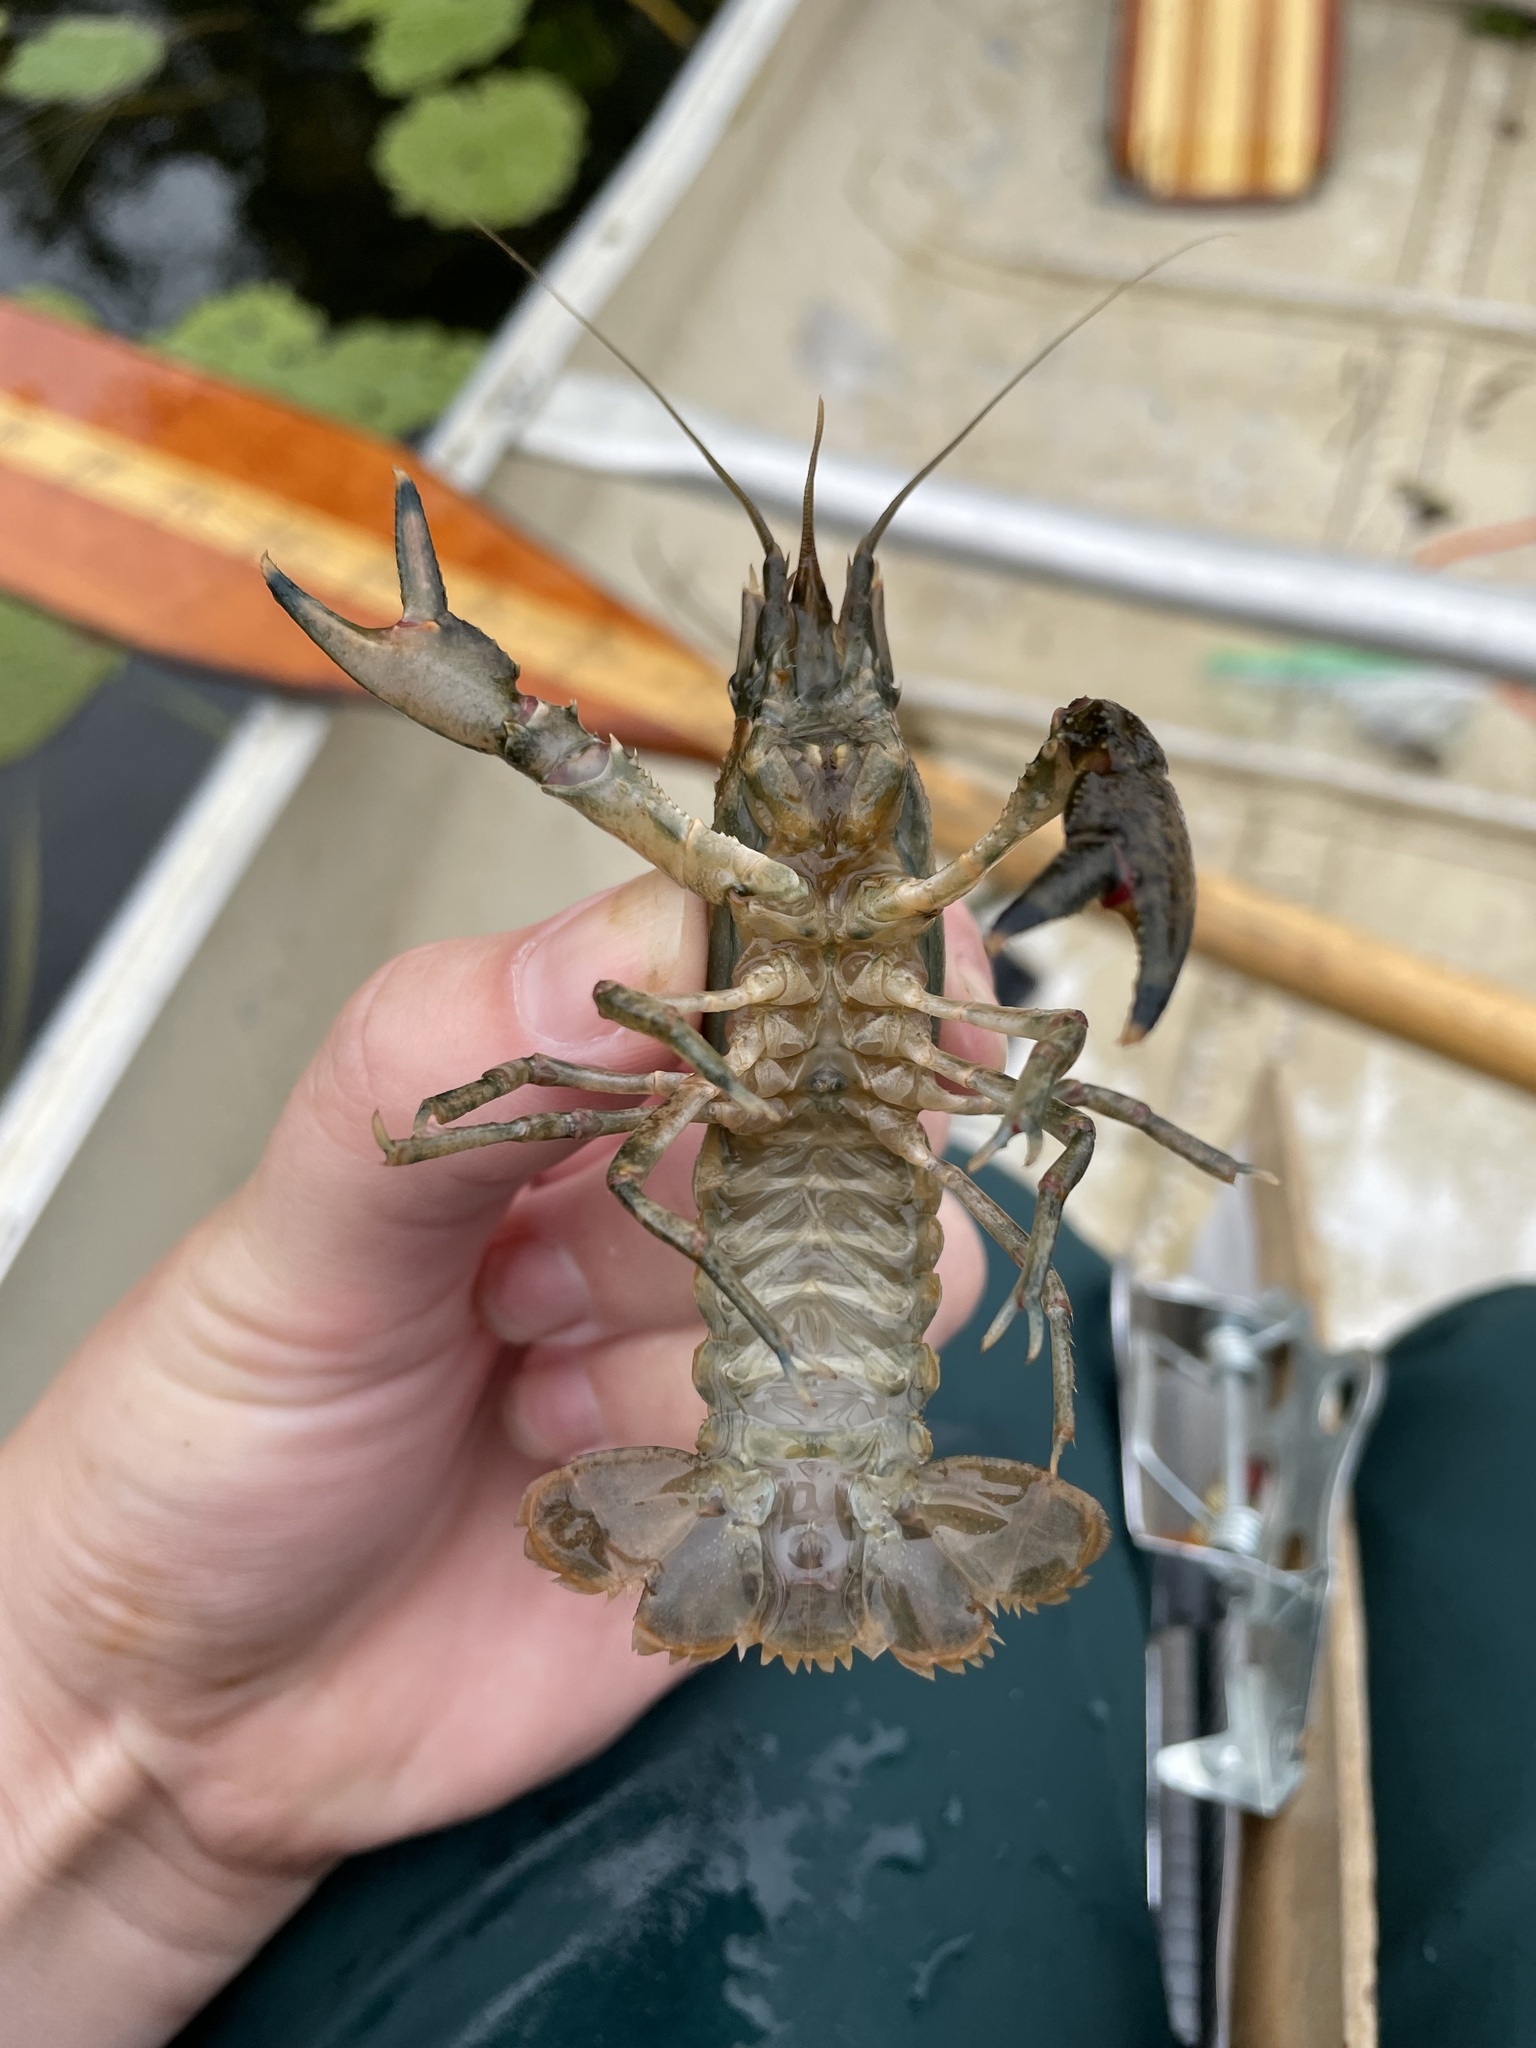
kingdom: Animalia
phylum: Arthropoda
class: Malacostraca
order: Decapoda
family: Cambaridae
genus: Faxonius
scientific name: Faxonius limosus
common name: American crayfish
